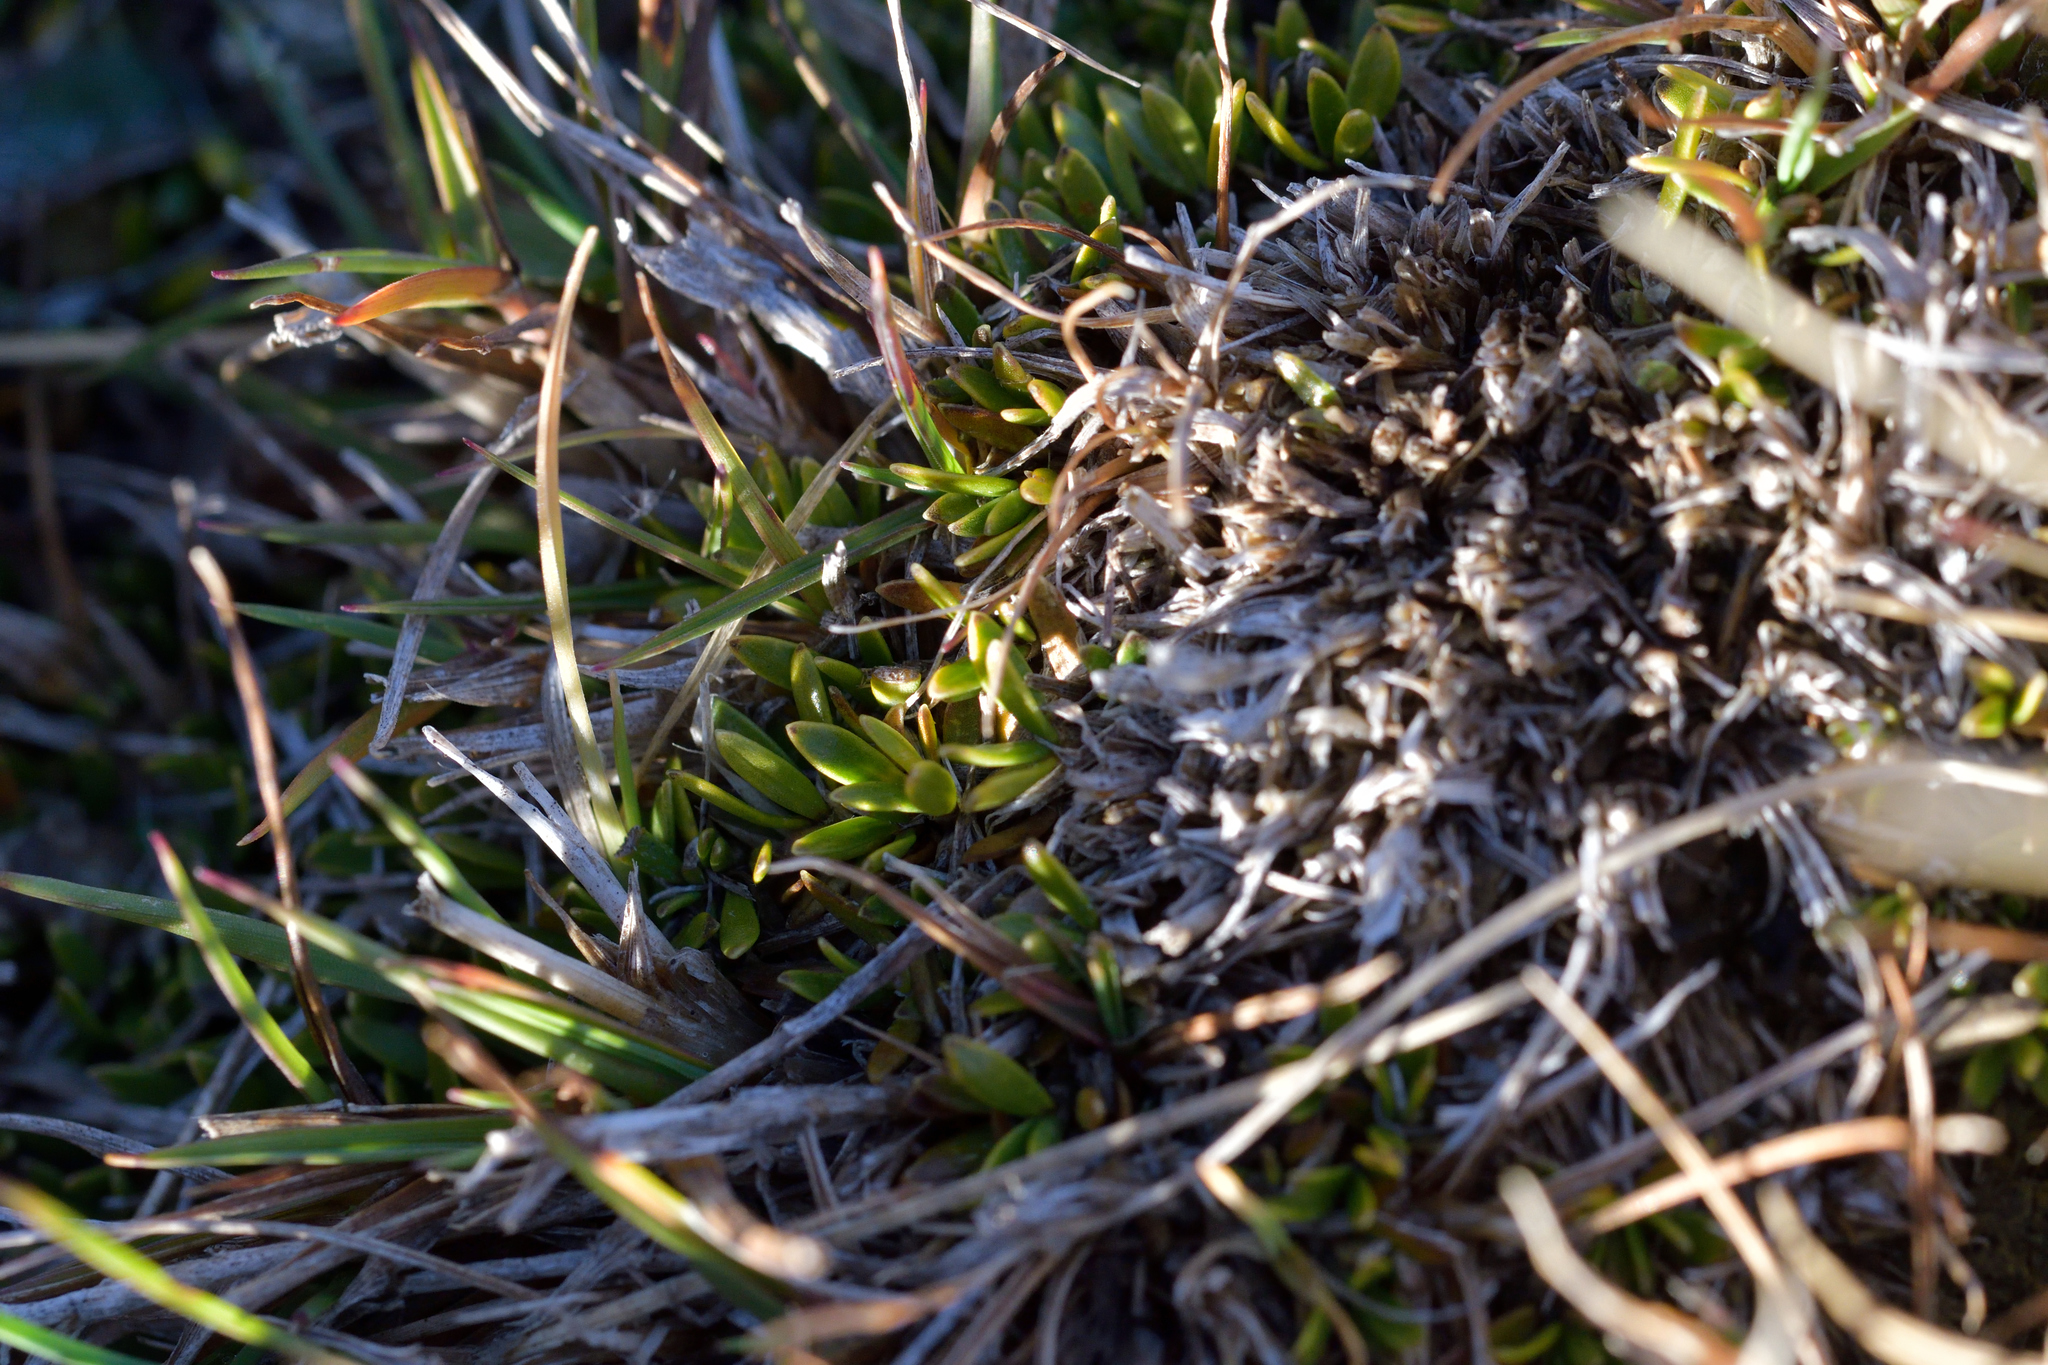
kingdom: Plantae
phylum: Tracheophyta
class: Magnoliopsida
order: Gentianales
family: Rubiaceae
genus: Coprosma
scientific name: Coprosma petriei
